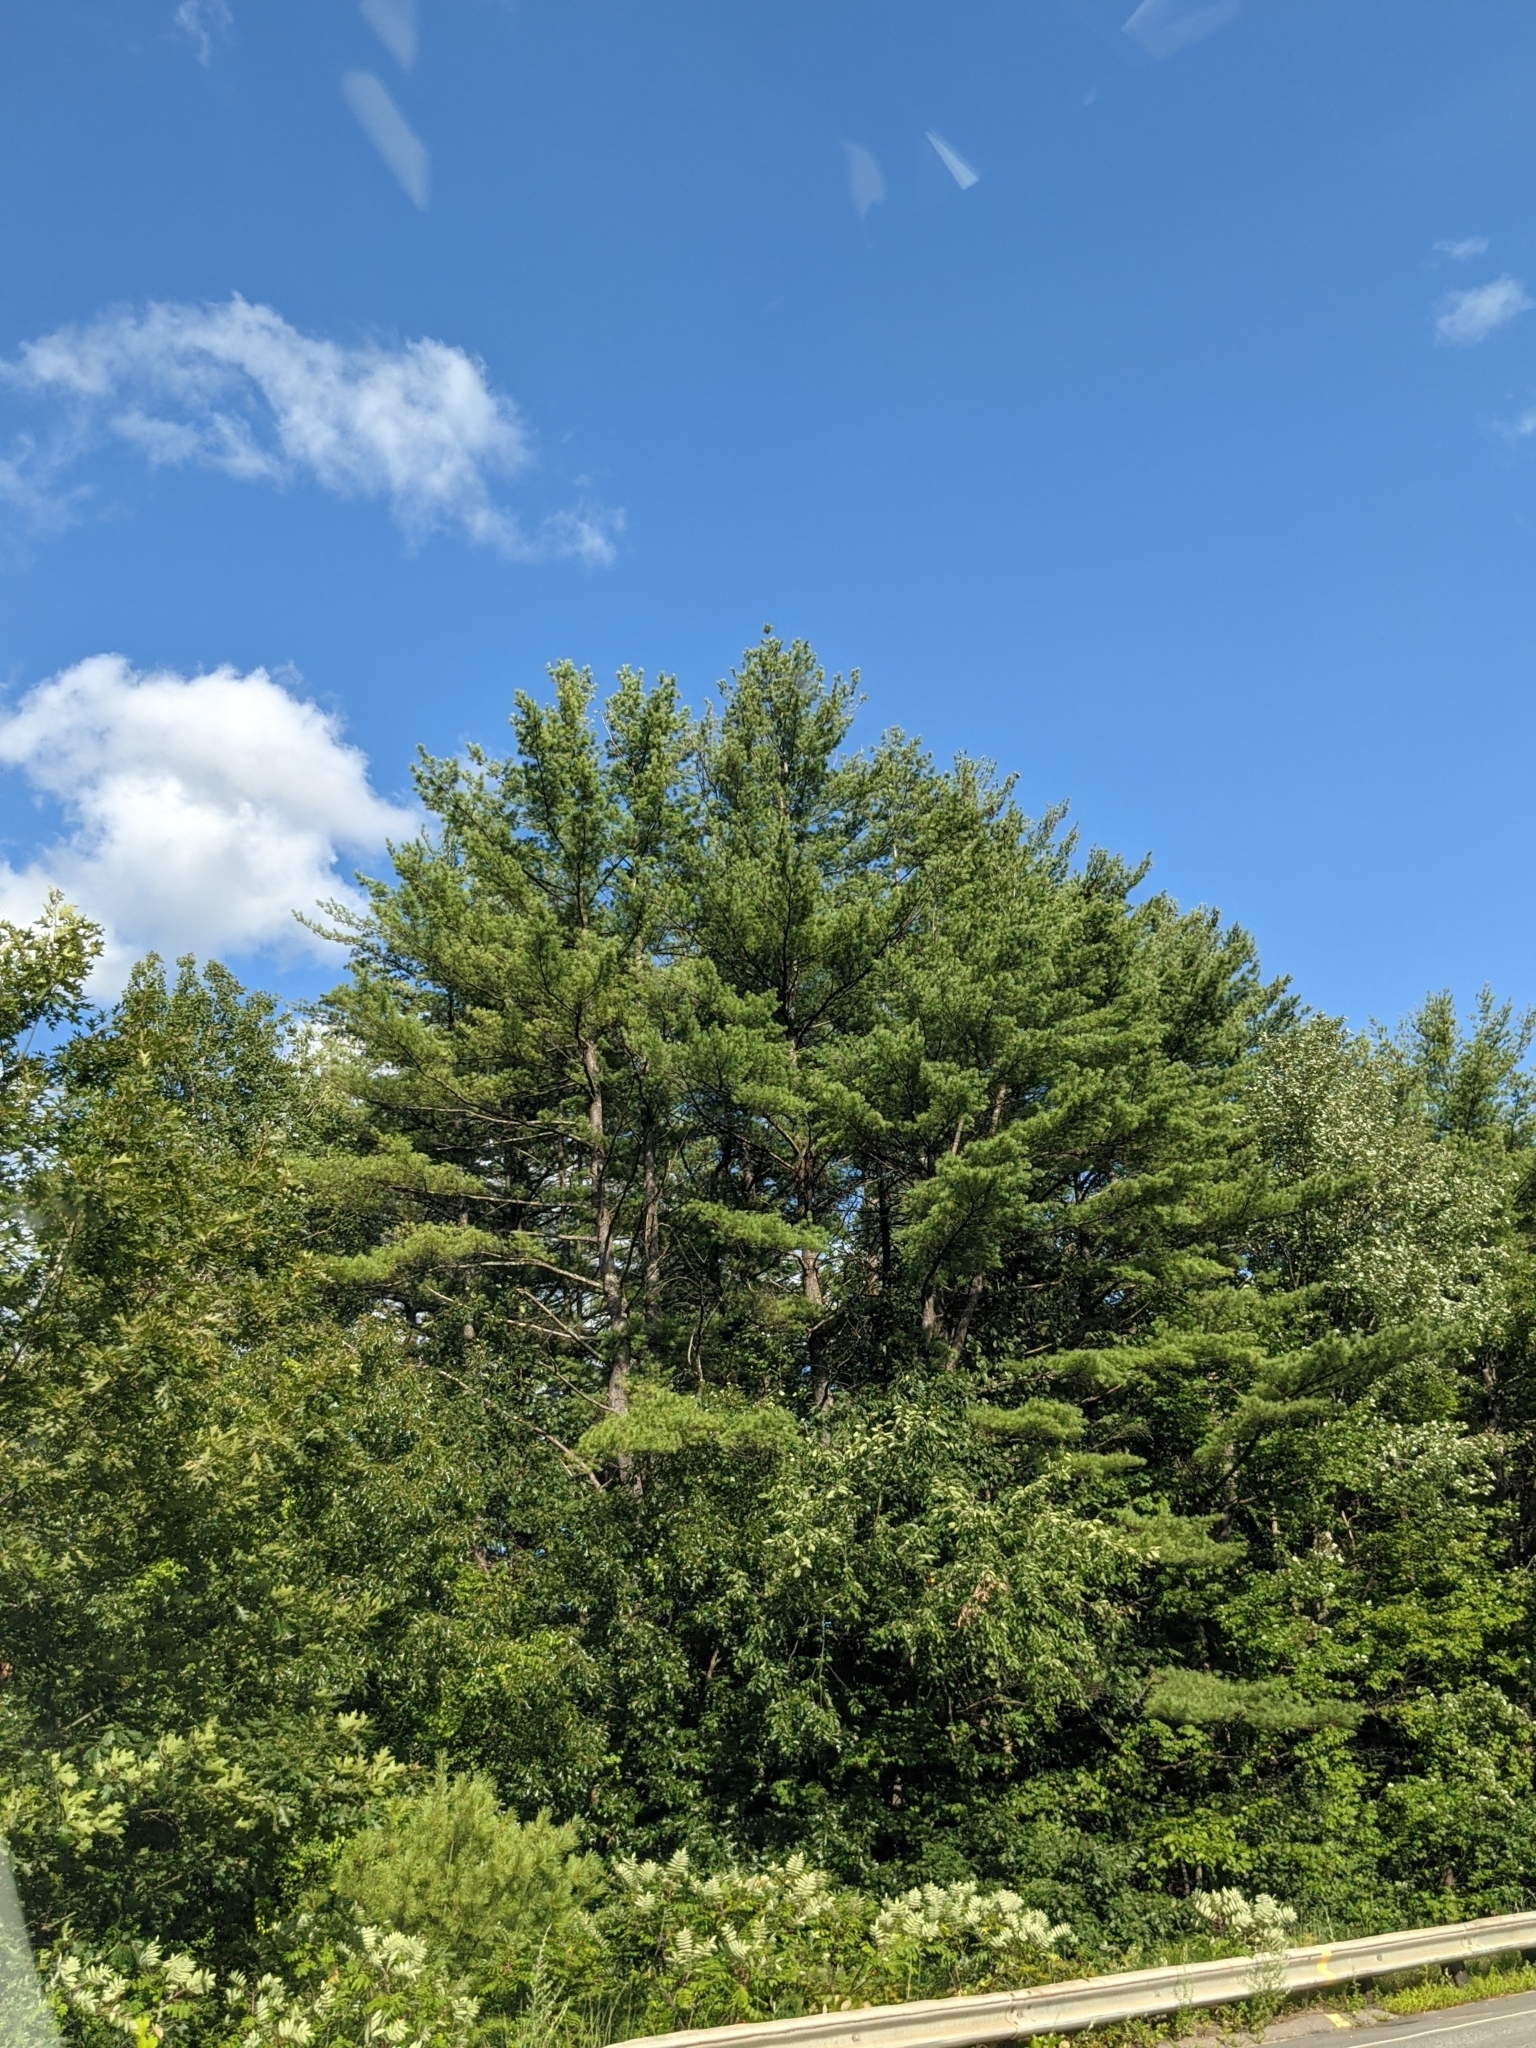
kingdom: Plantae
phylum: Tracheophyta
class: Pinopsida
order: Pinales
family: Pinaceae
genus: Pinus
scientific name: Pinus strobus
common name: Weymouth pine
